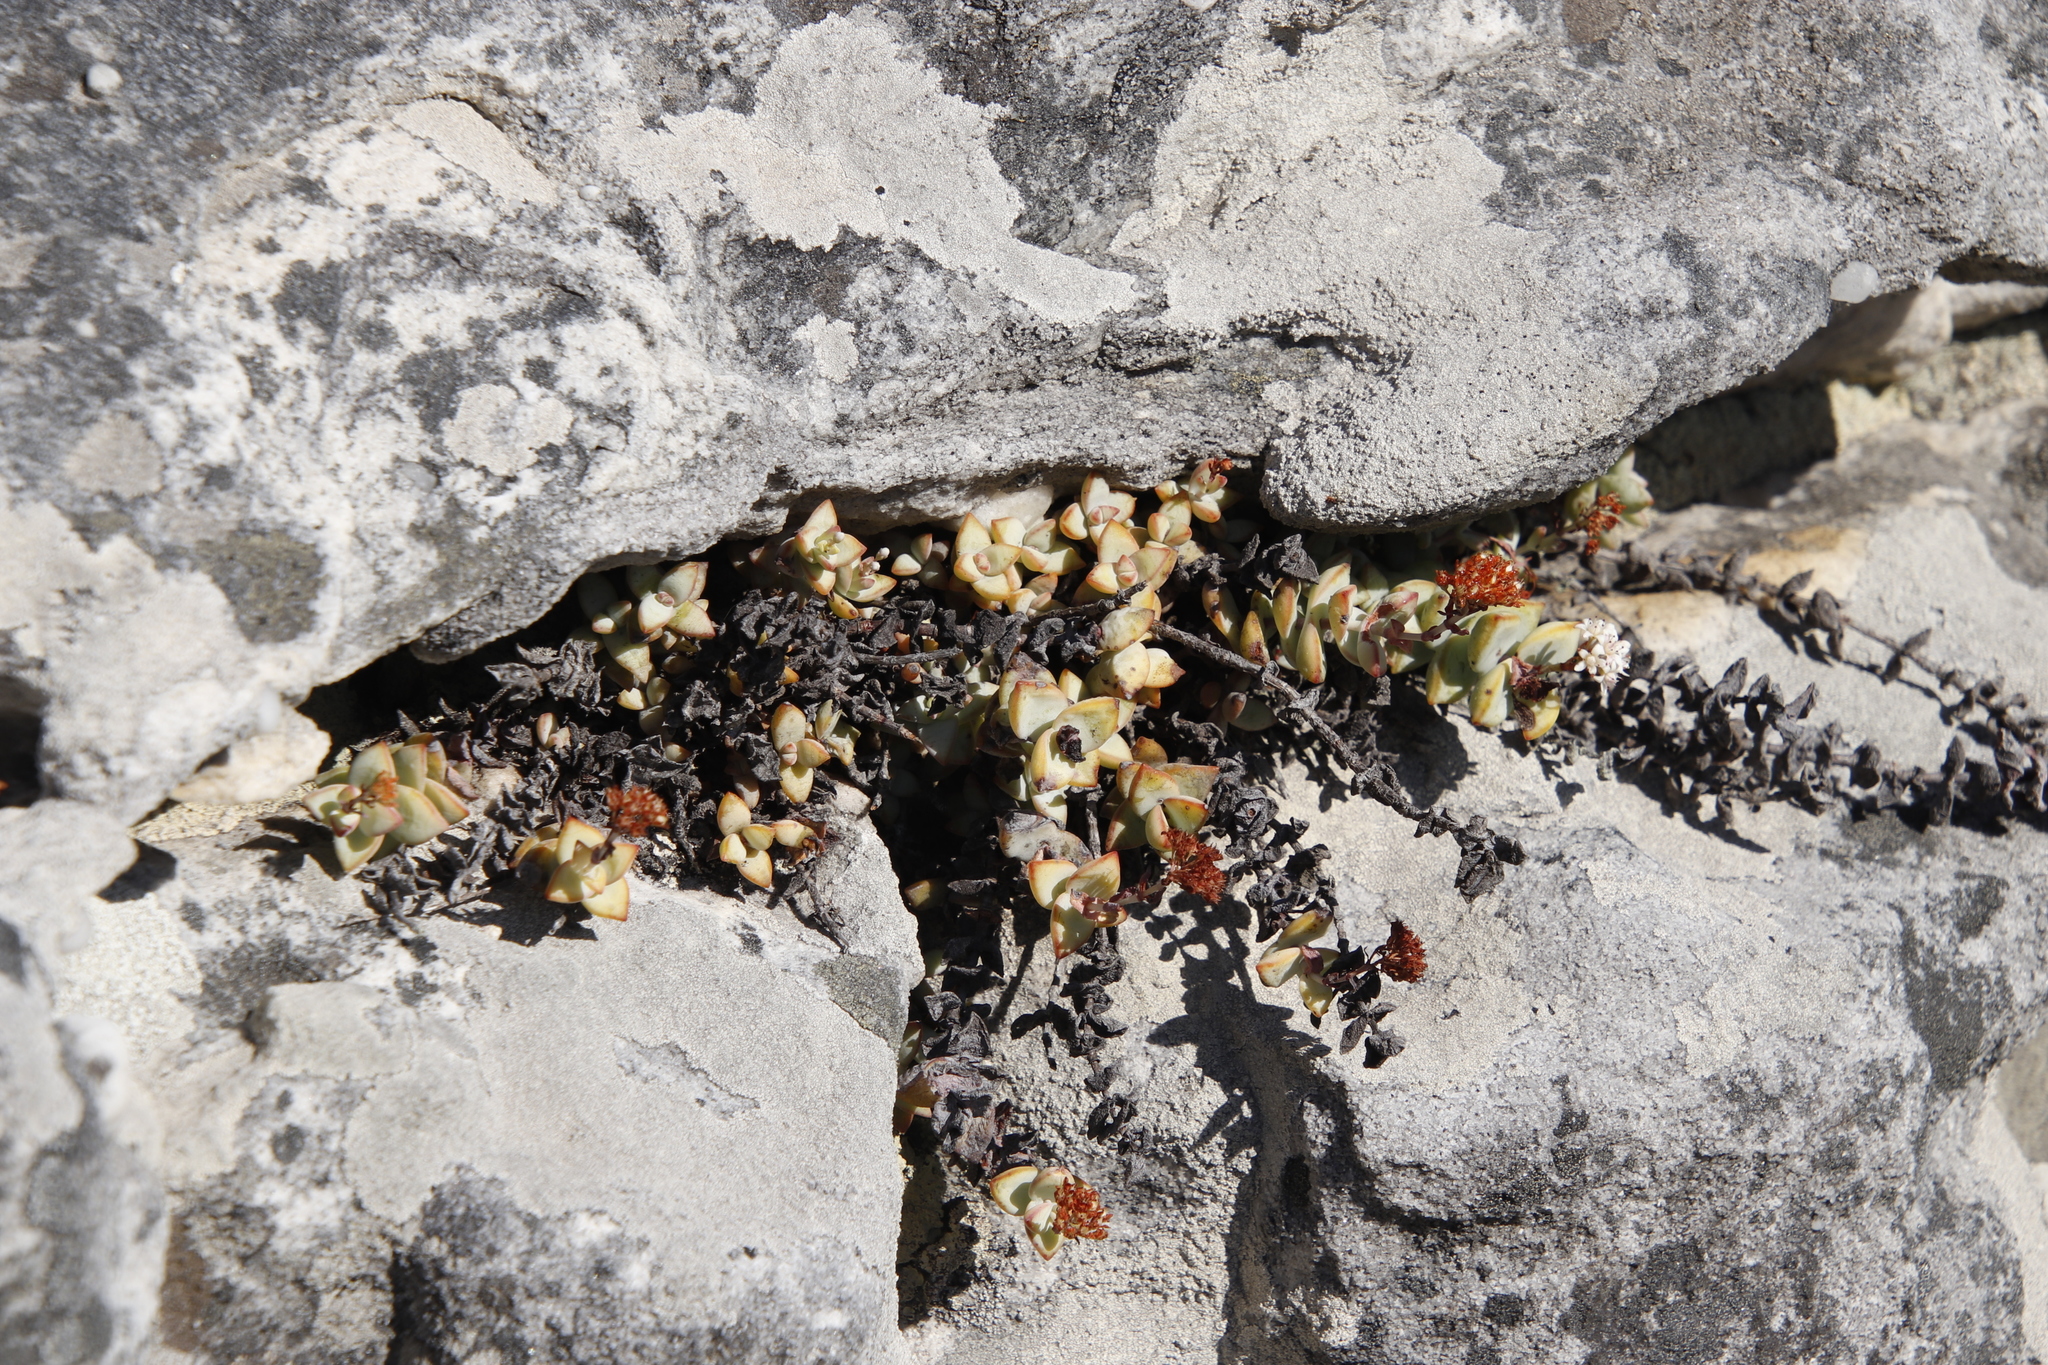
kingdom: Plantae
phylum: Tracheophyta
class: Magnoliopsida
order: Saxifragales
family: Crassulaceae
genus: Crassula
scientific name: Crassula rupestris
